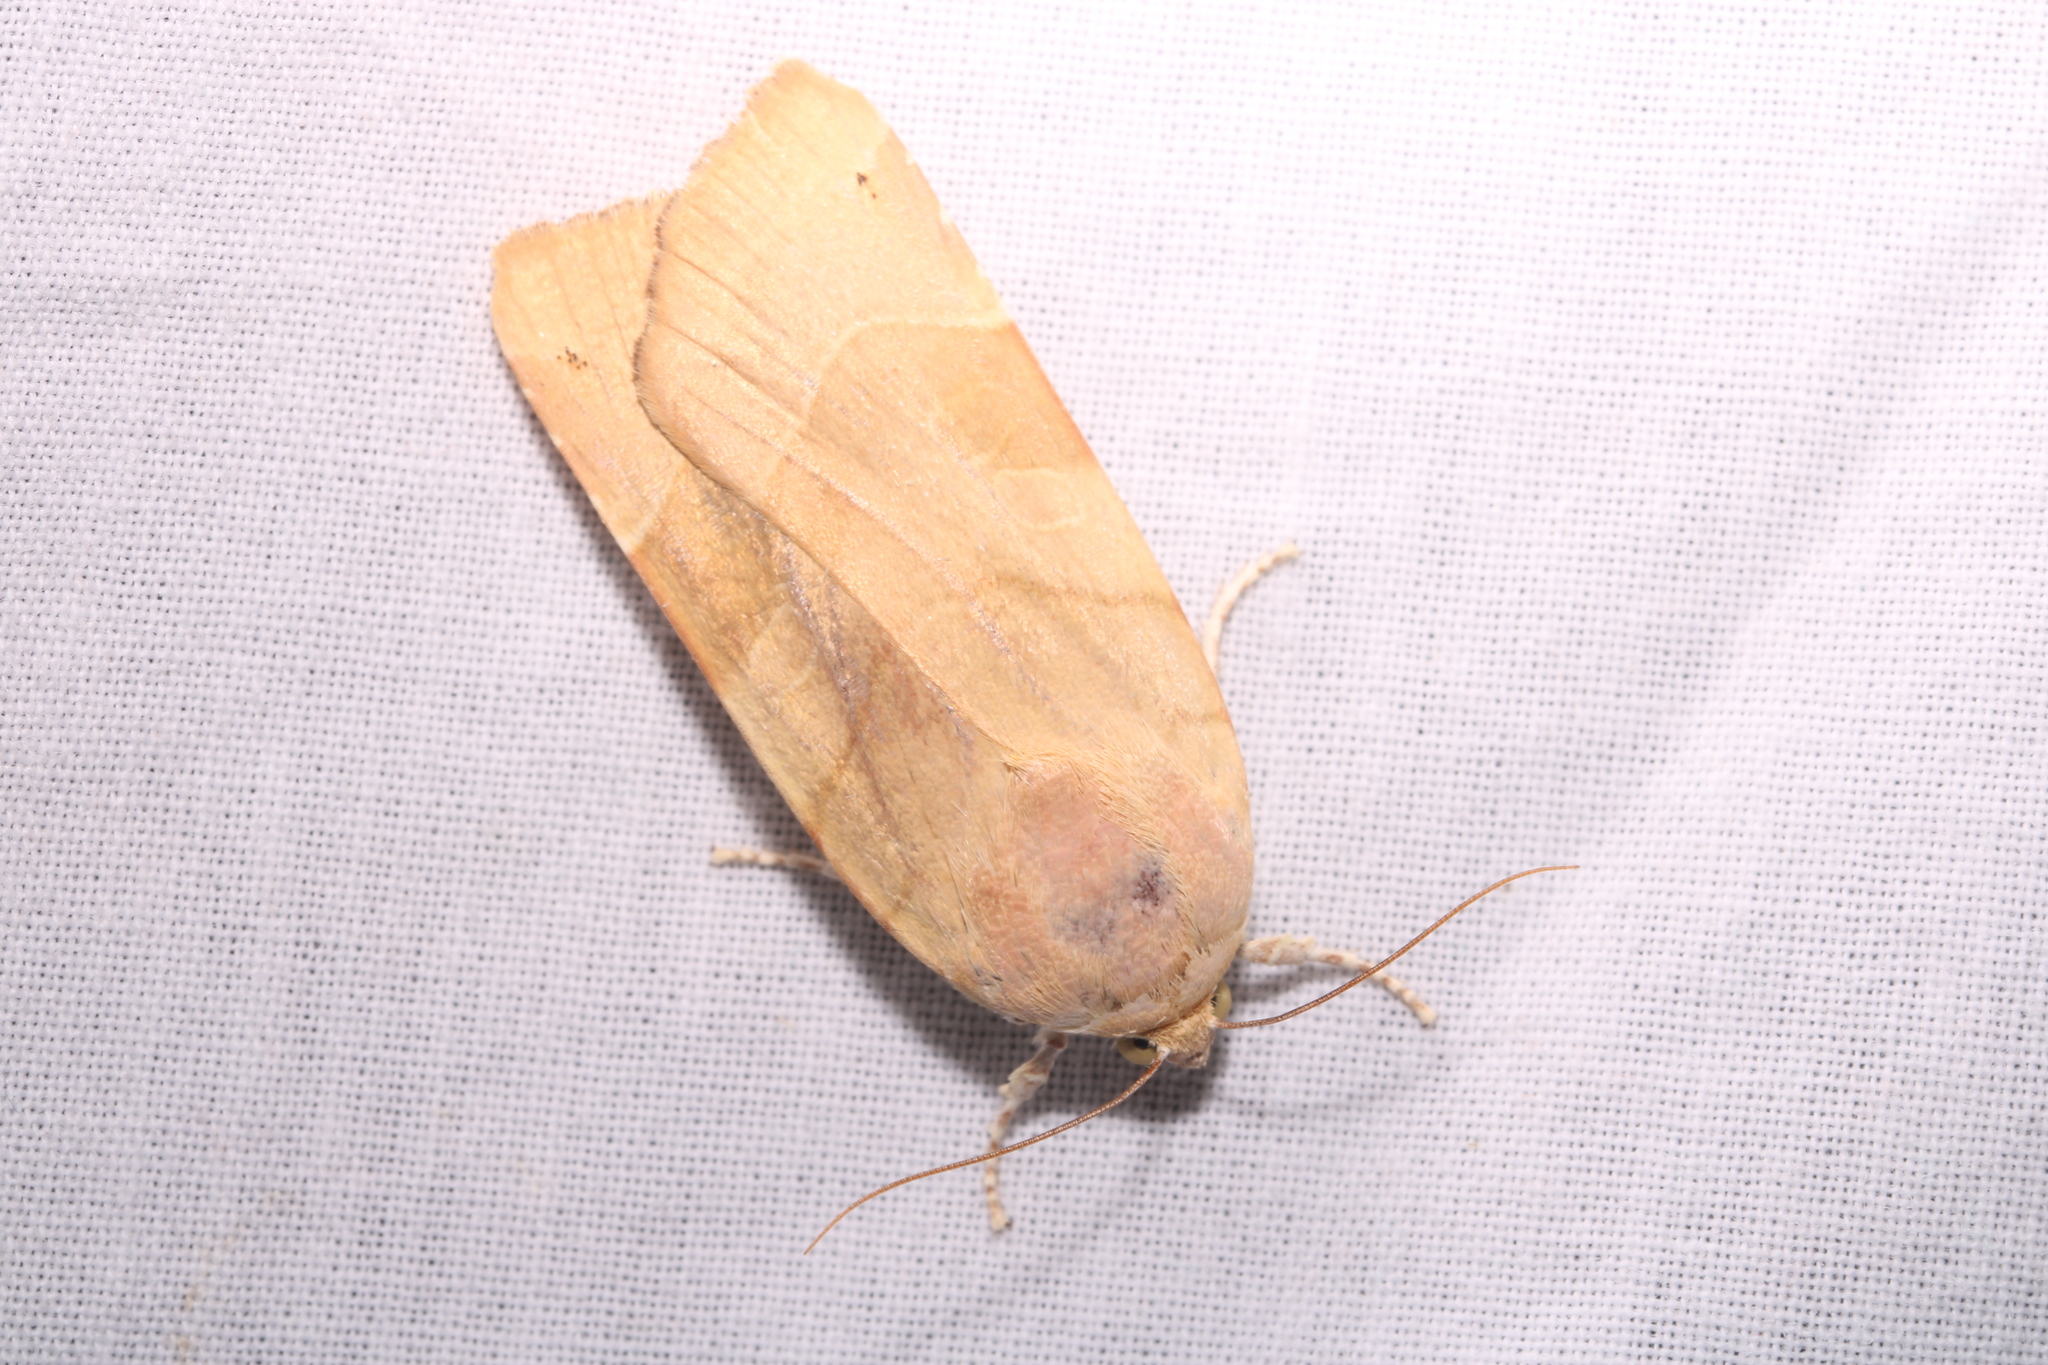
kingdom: Animalia
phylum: Arthropoda
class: Insecta
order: Lepidoptera
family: Noctuidae
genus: Noctua
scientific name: Noctua fimbriata
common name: Broad-bordered yellow underwing
